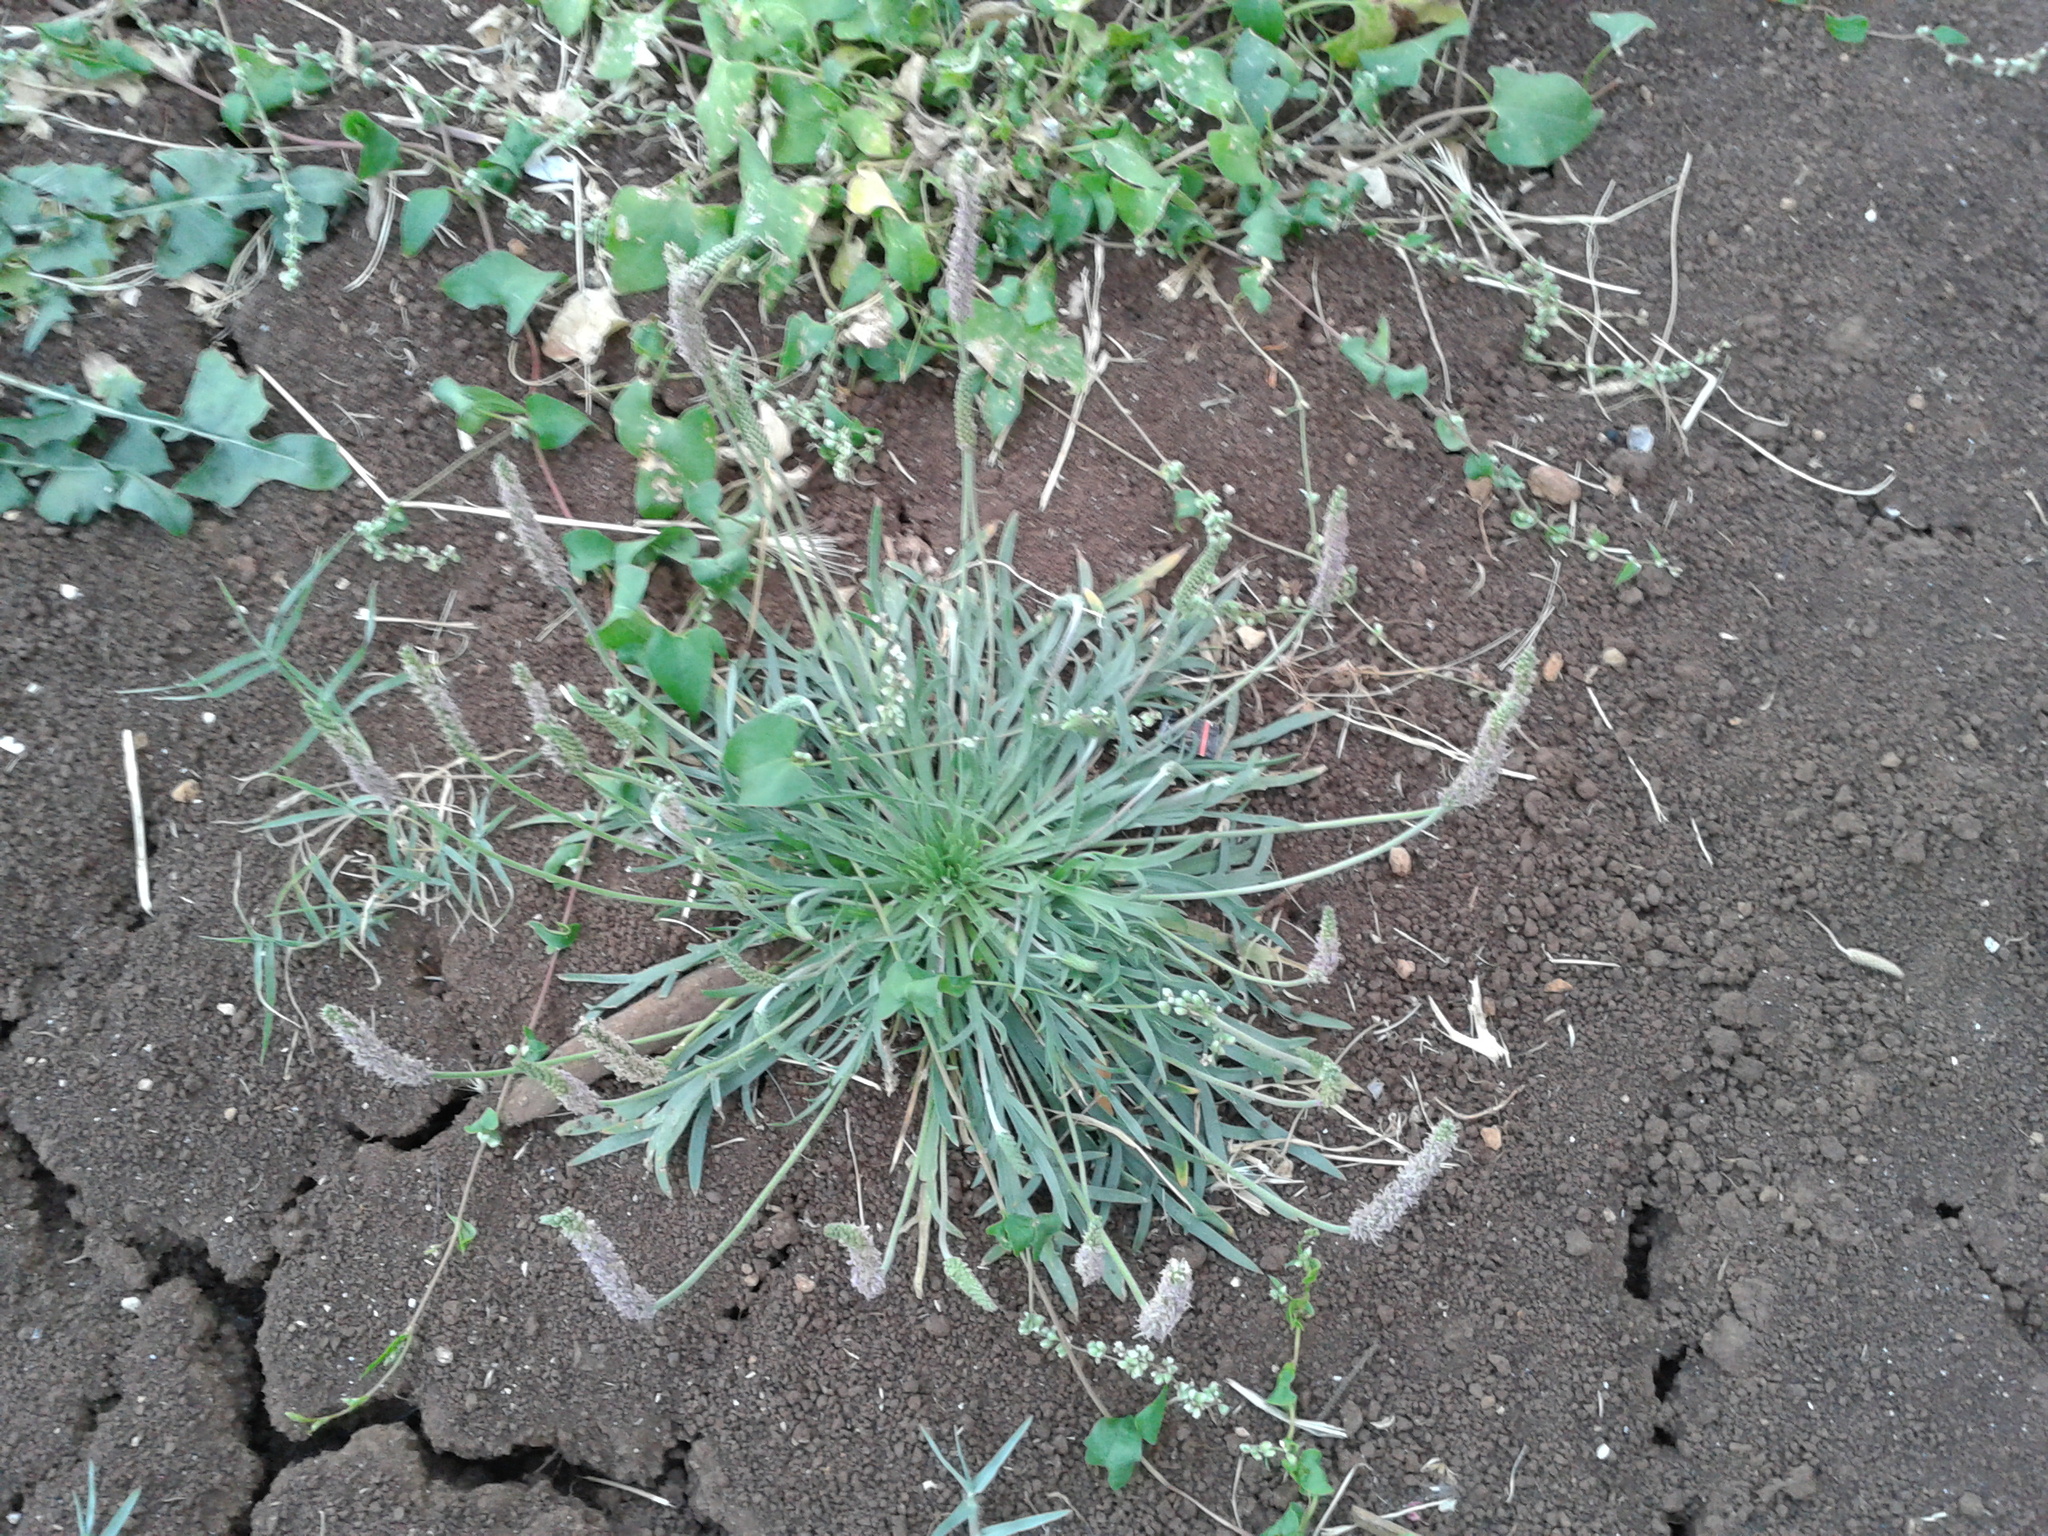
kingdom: Plantae
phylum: Tracheophyta
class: Magnoliopsida
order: Lamiales
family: Plantaginaceae
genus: Plantago
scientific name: Plantago coronopus
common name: Buck's-horn plantain
